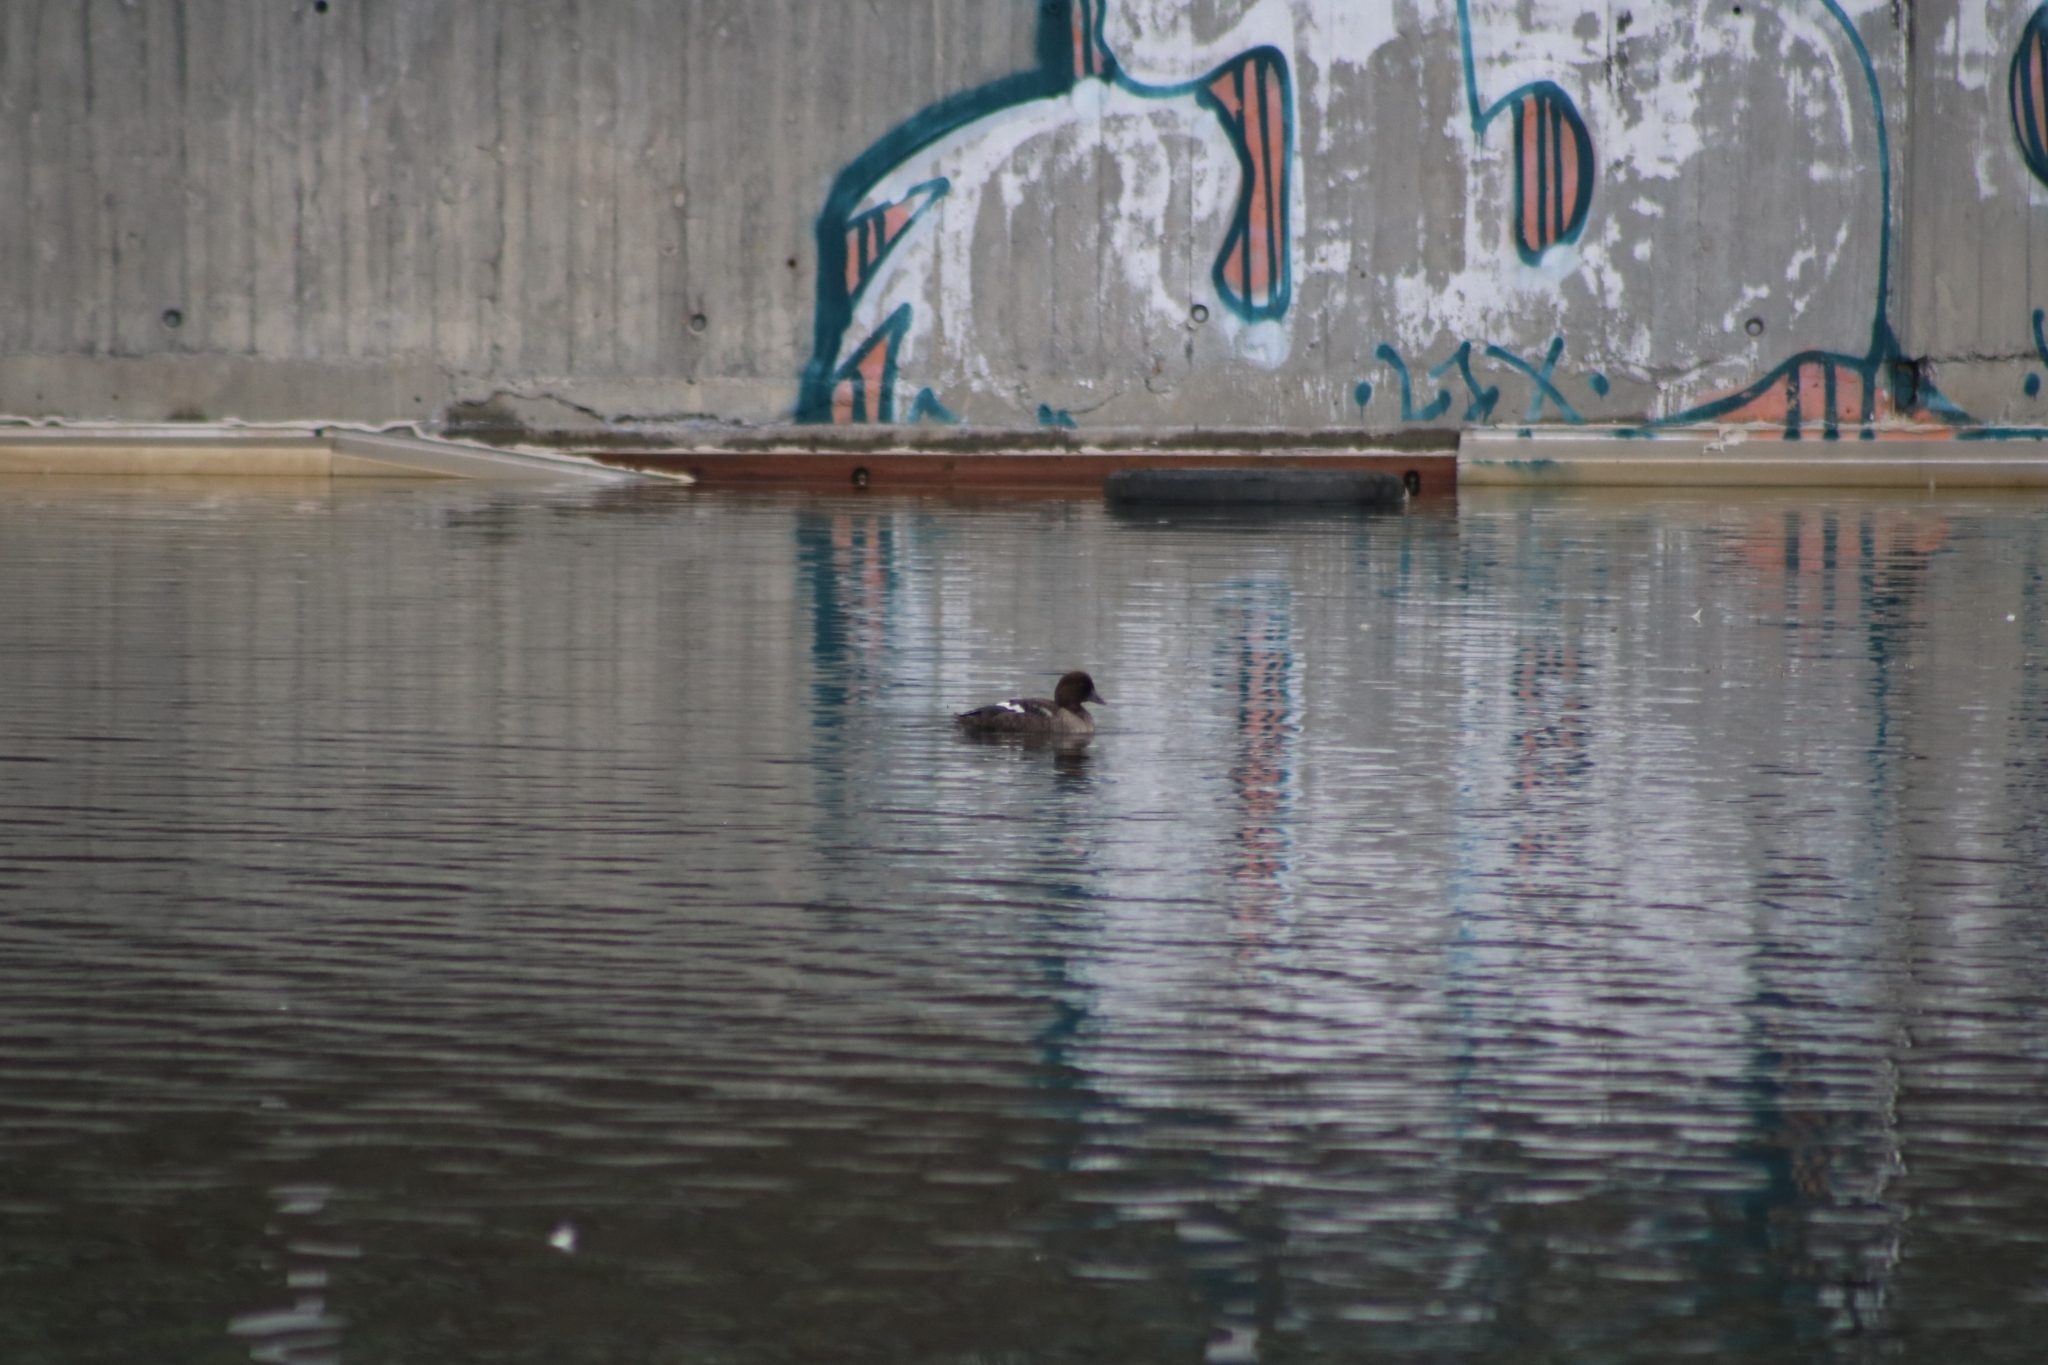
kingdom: Animalia
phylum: Chordata
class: Aves
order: Anseriformes
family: Anatidae
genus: Bucephala
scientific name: Bucephala clangula
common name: Common goldeneye
